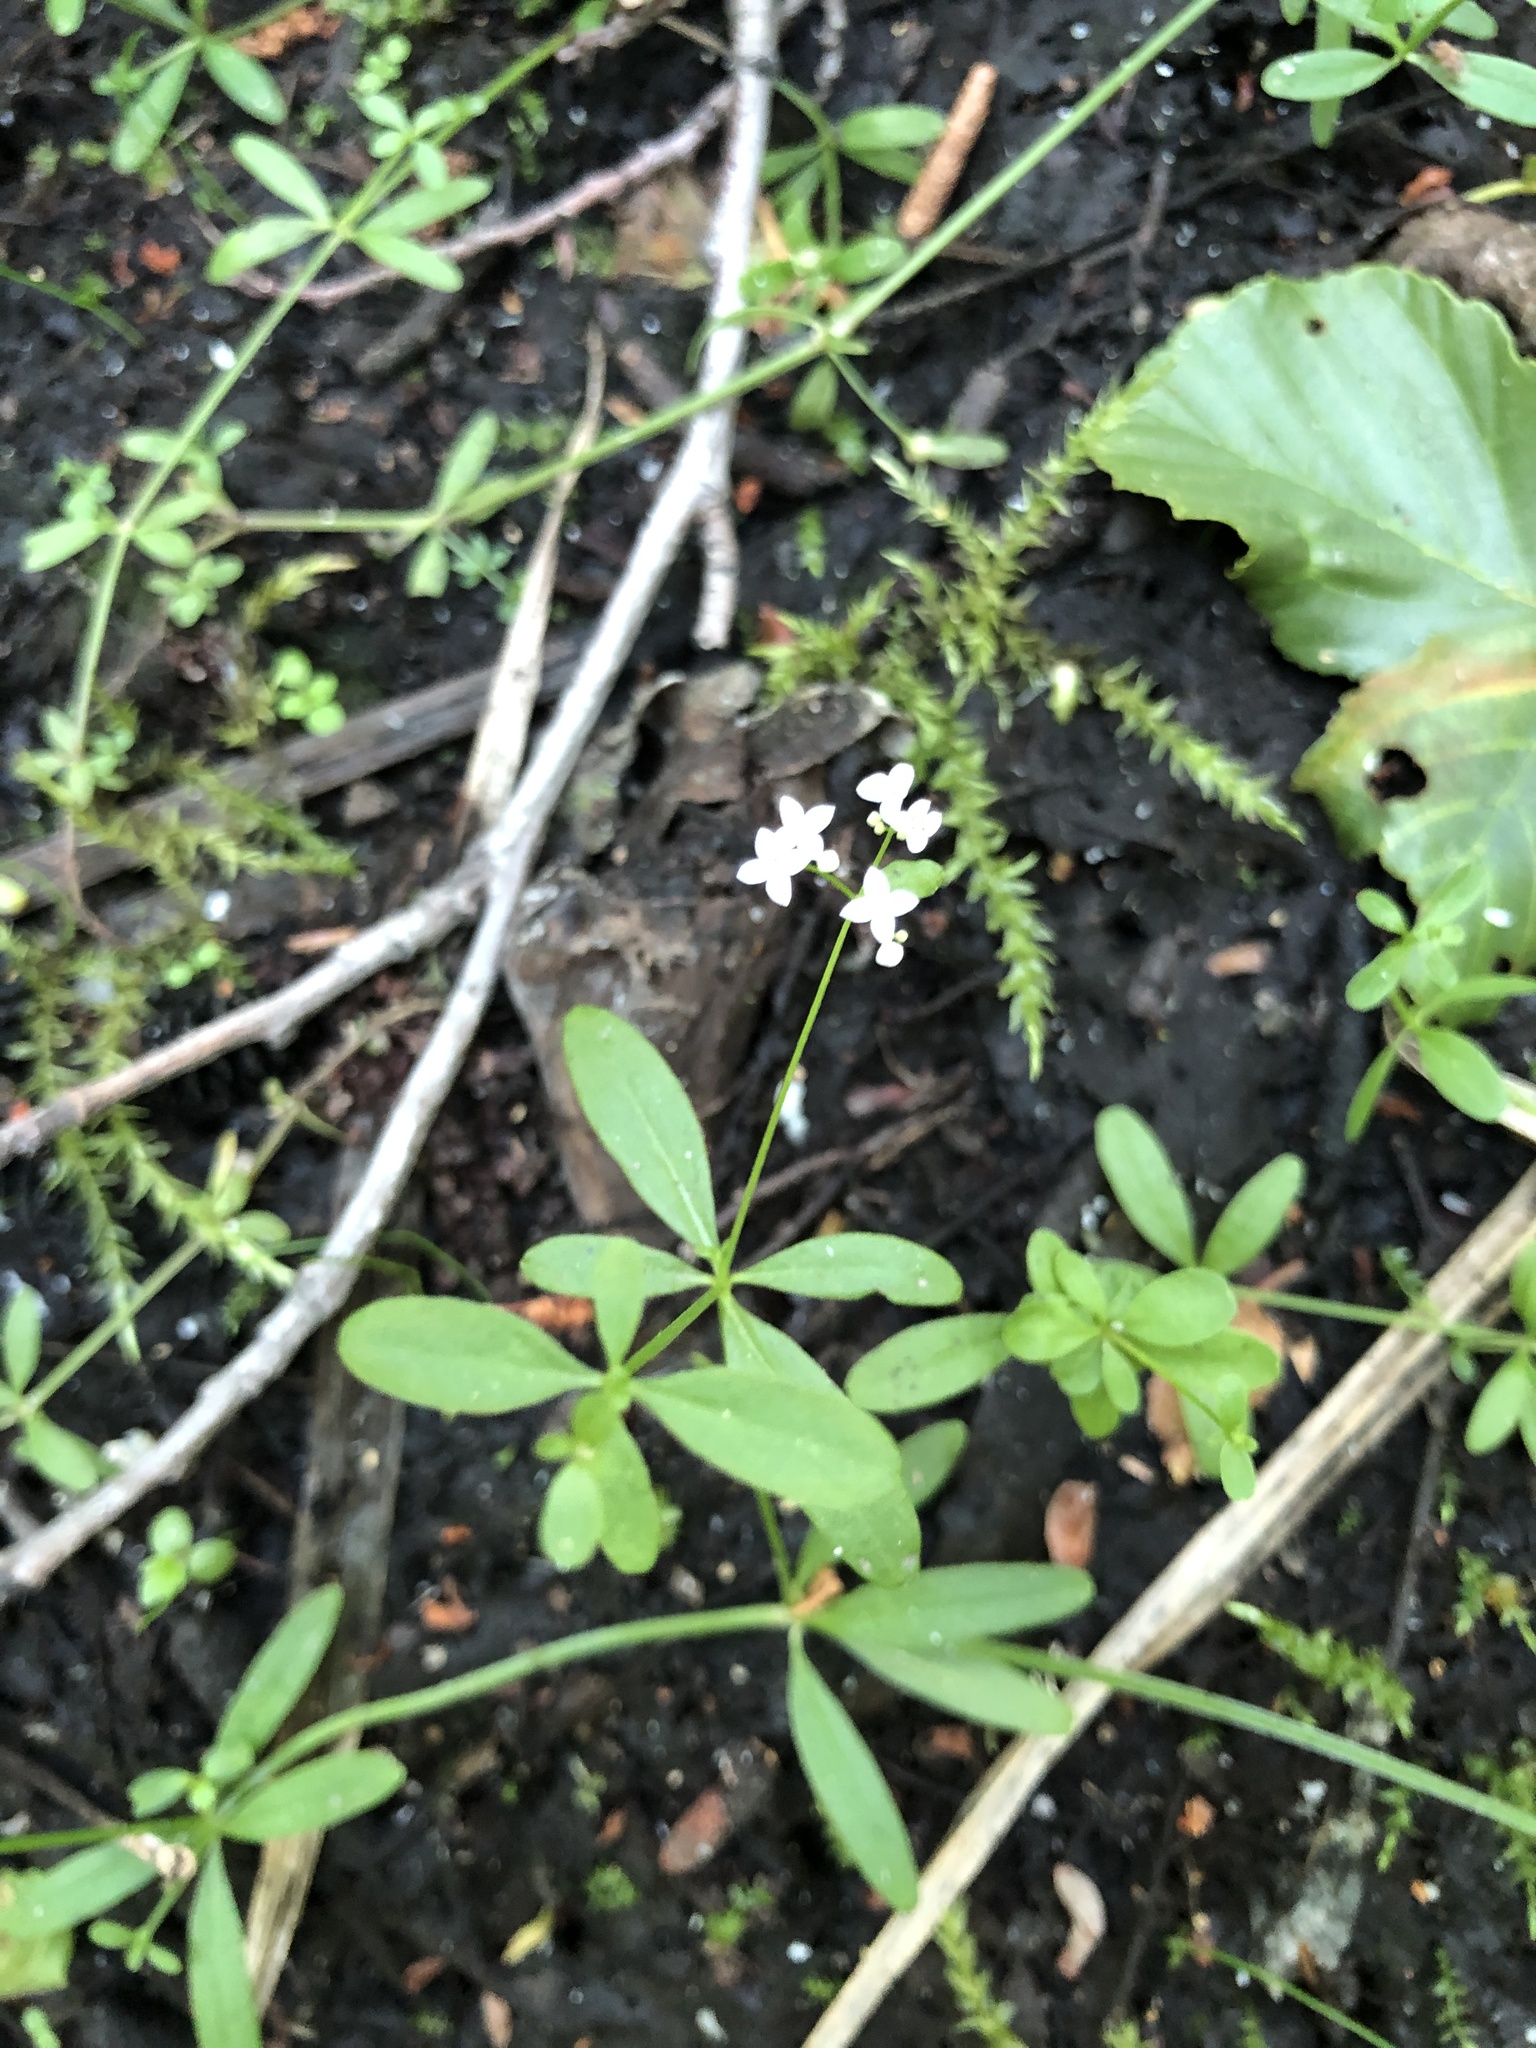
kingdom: Plantae
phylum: Tracheophyta
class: Magnoliopsida
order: Gentianales
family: Rubiaceae
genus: Galium
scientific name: Galium palustre
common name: Common marsh-bedstraw
